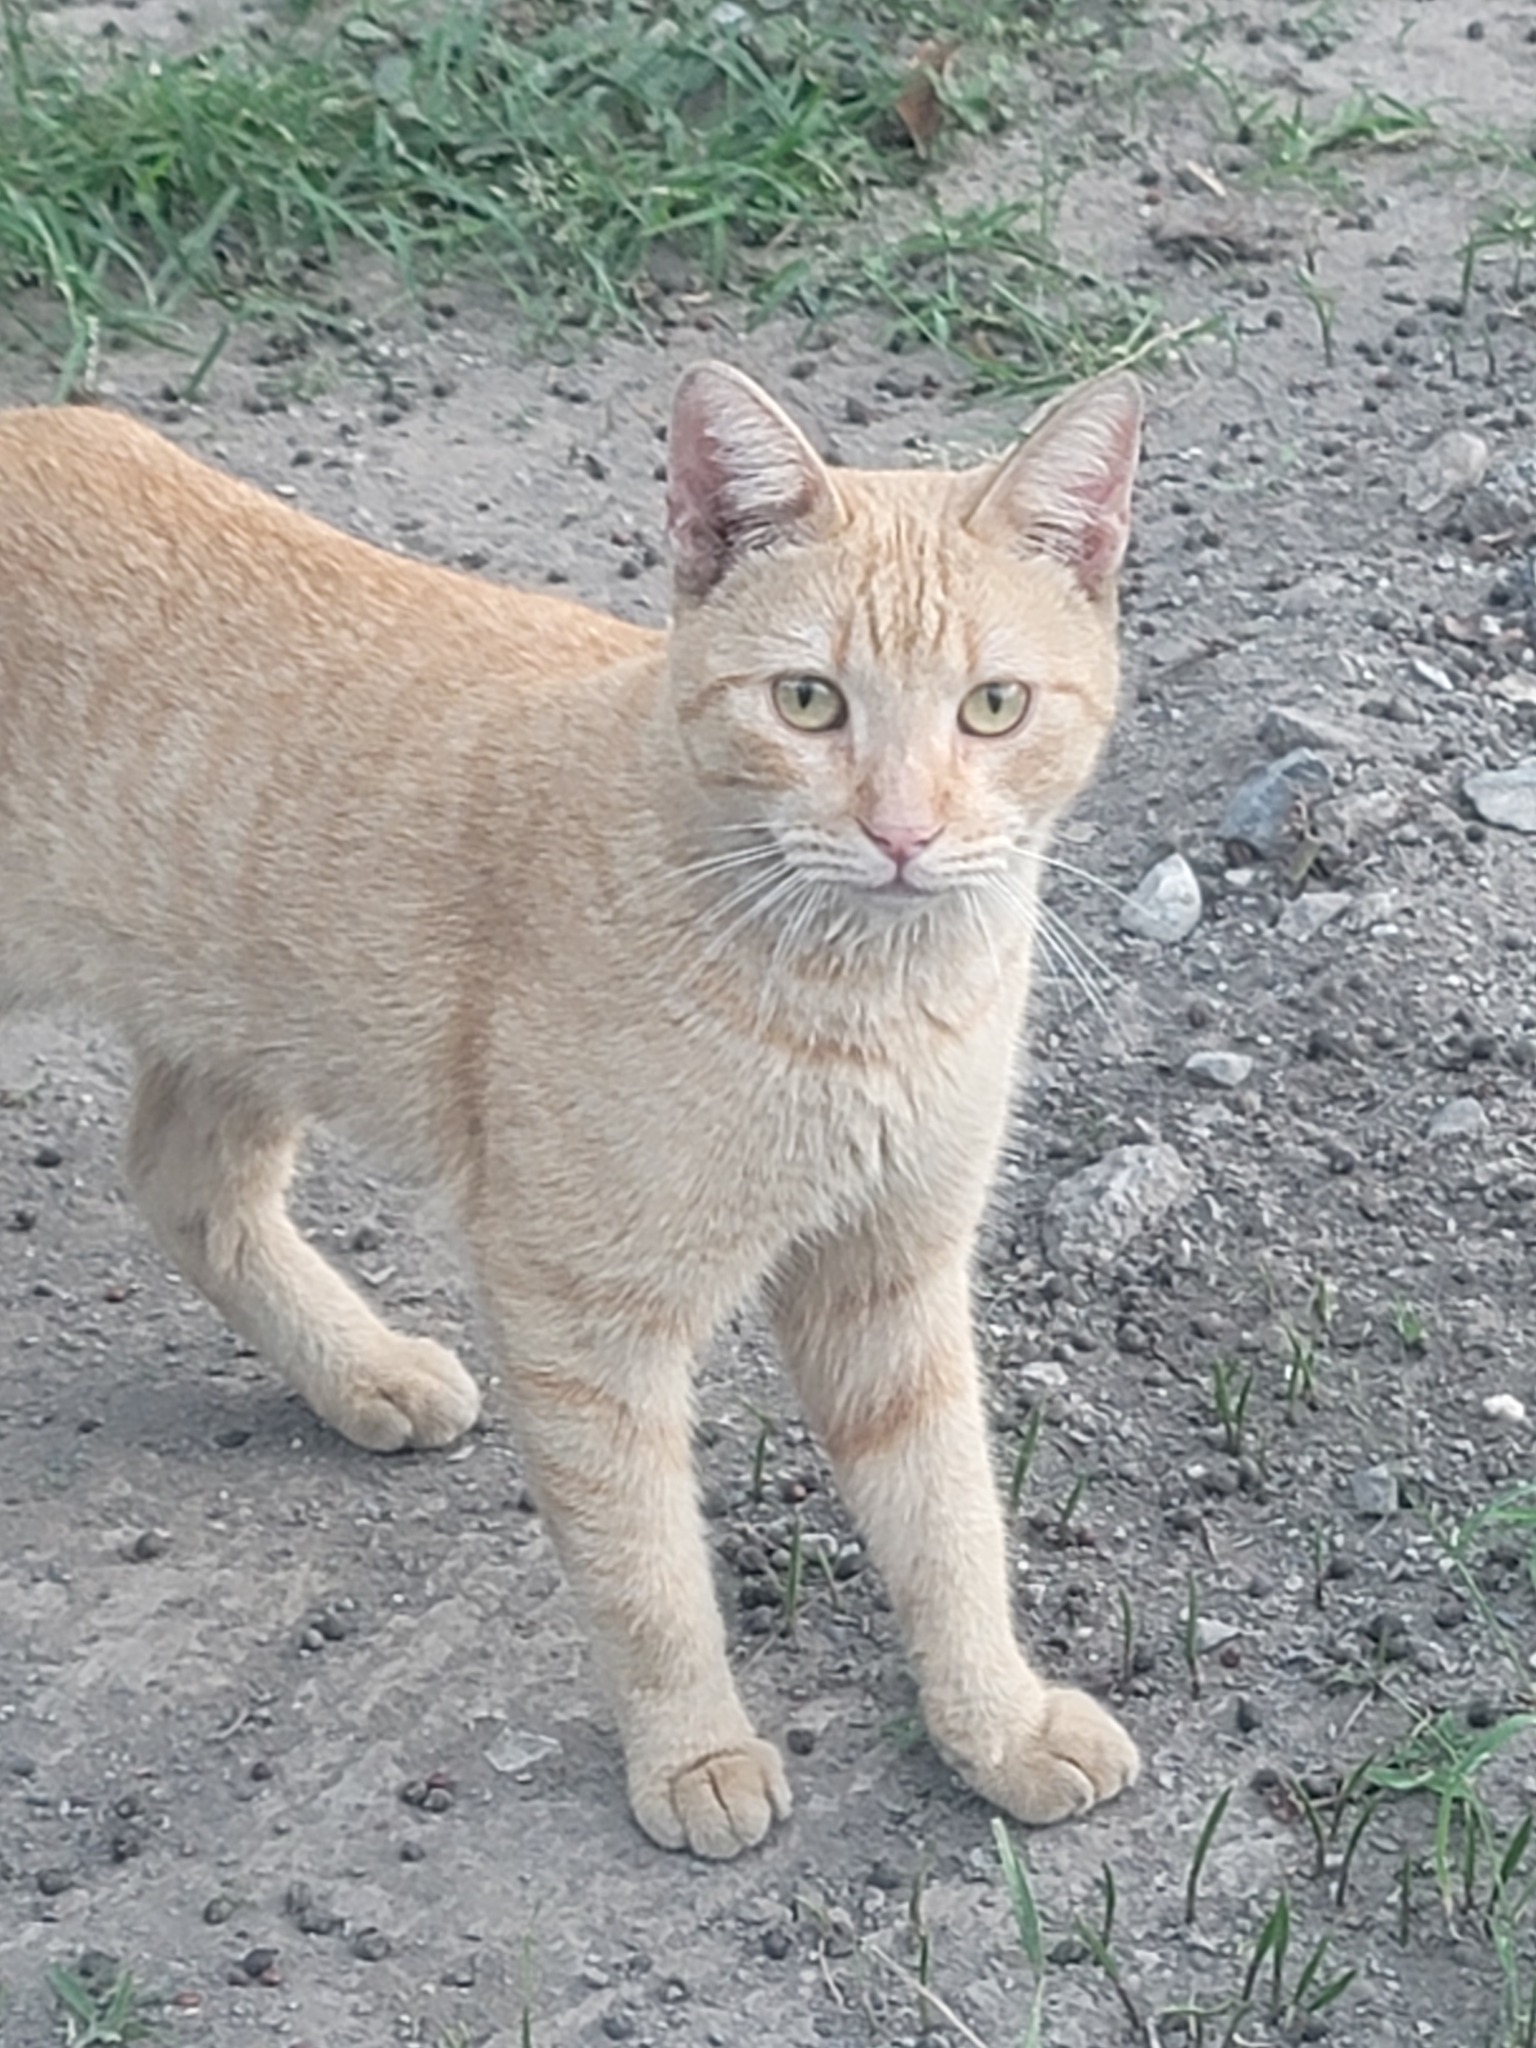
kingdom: Animalia
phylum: Chordata
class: Mammalia
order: Carnivora
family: Felidae
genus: Felis
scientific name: Felis catus
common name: Domestic cat
